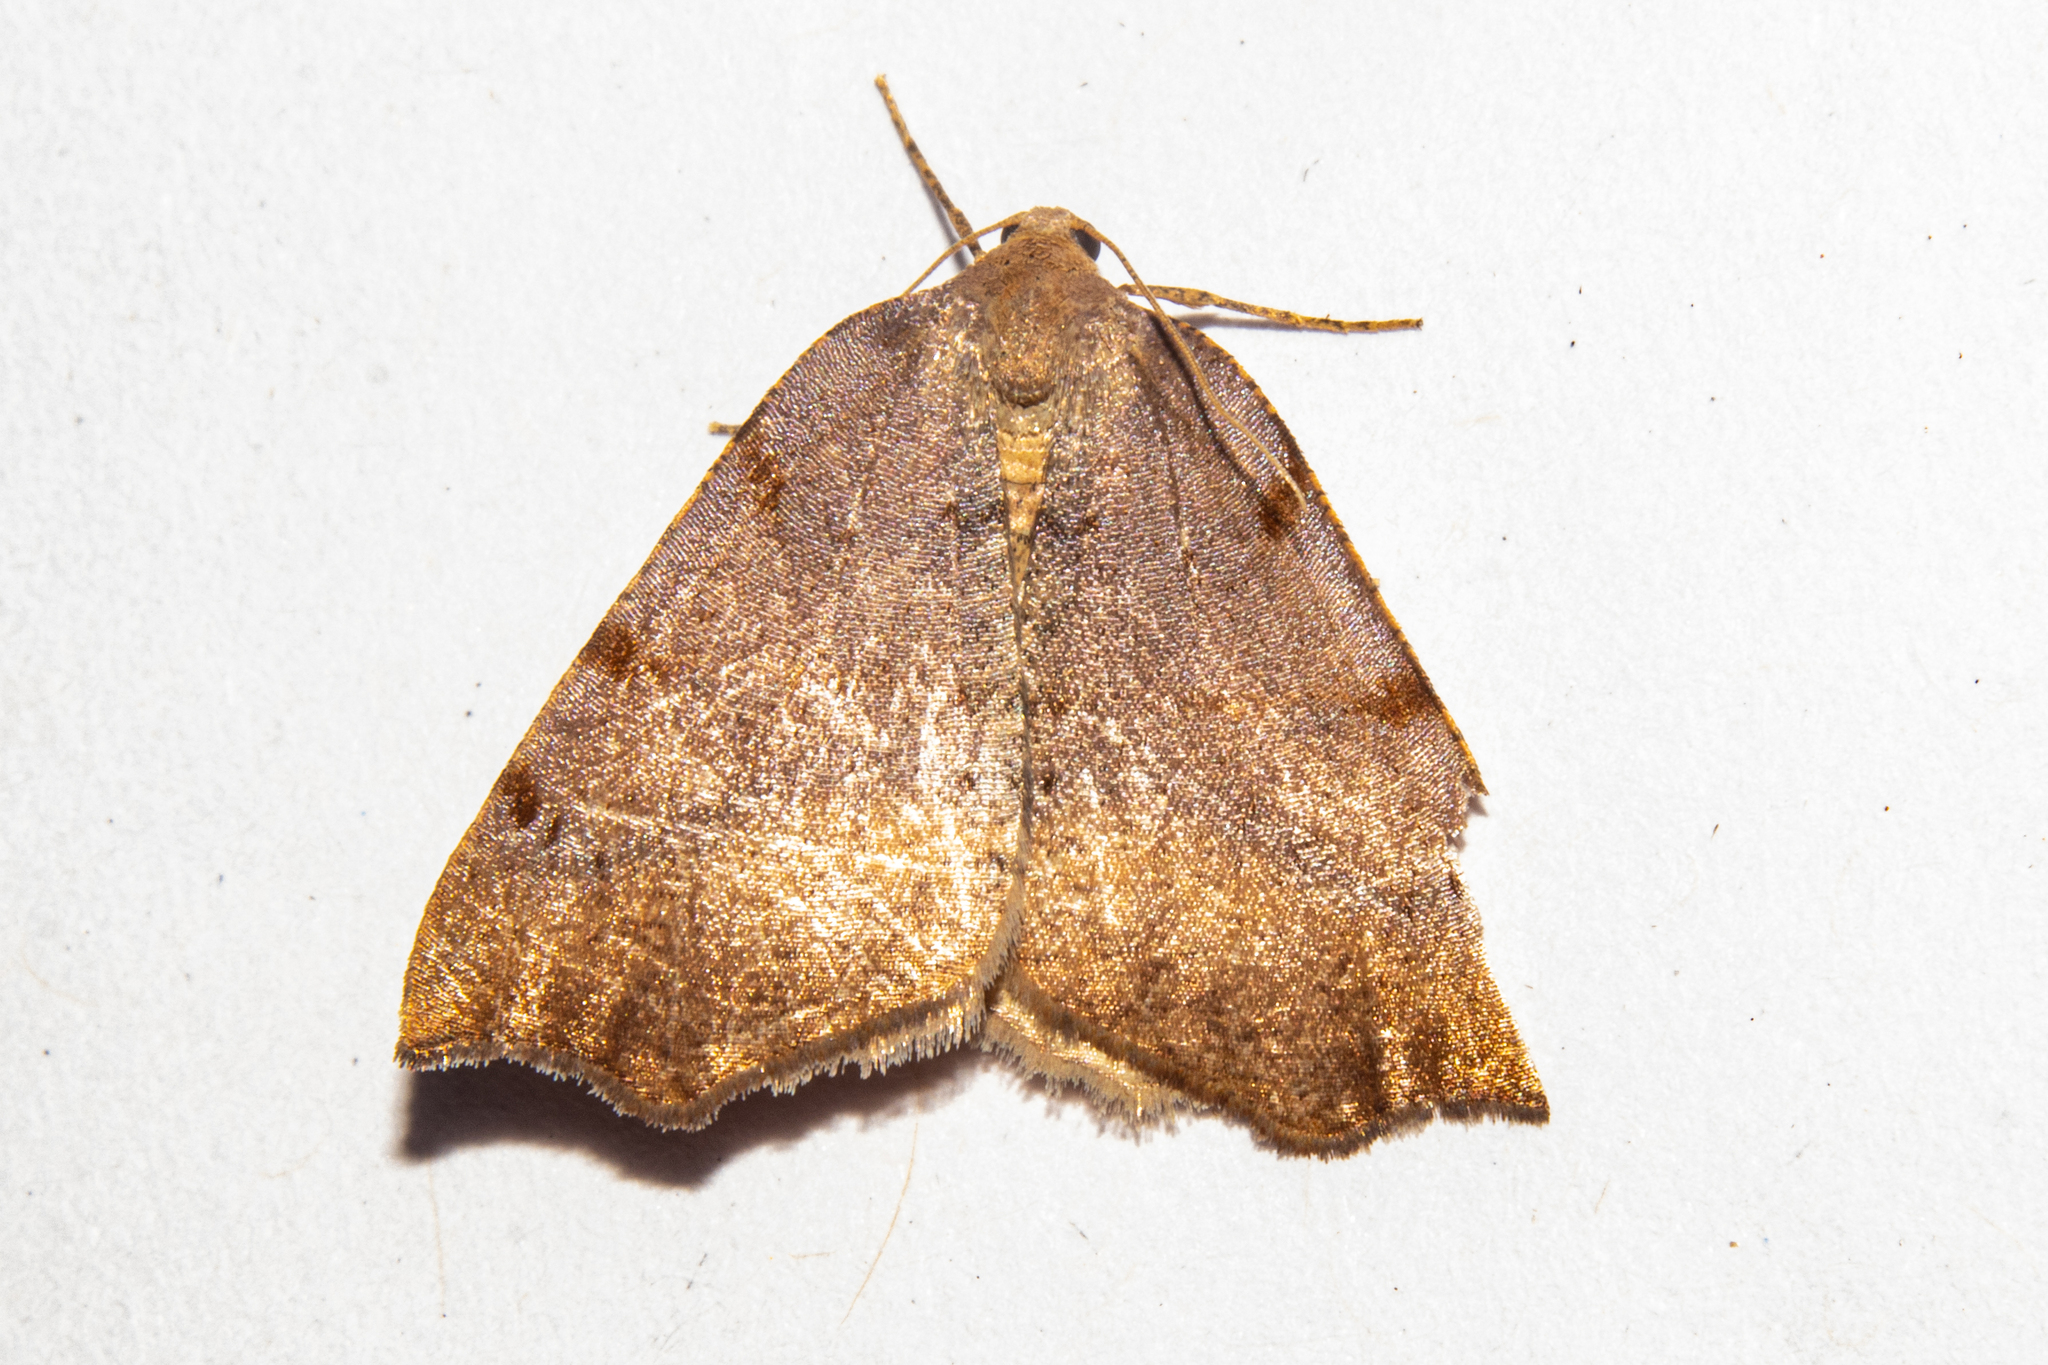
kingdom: Animalia
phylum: Arthropoda
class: Insecta
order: Lepidoptera
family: Geometridae
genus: Sestra
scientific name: Sestra flexata
